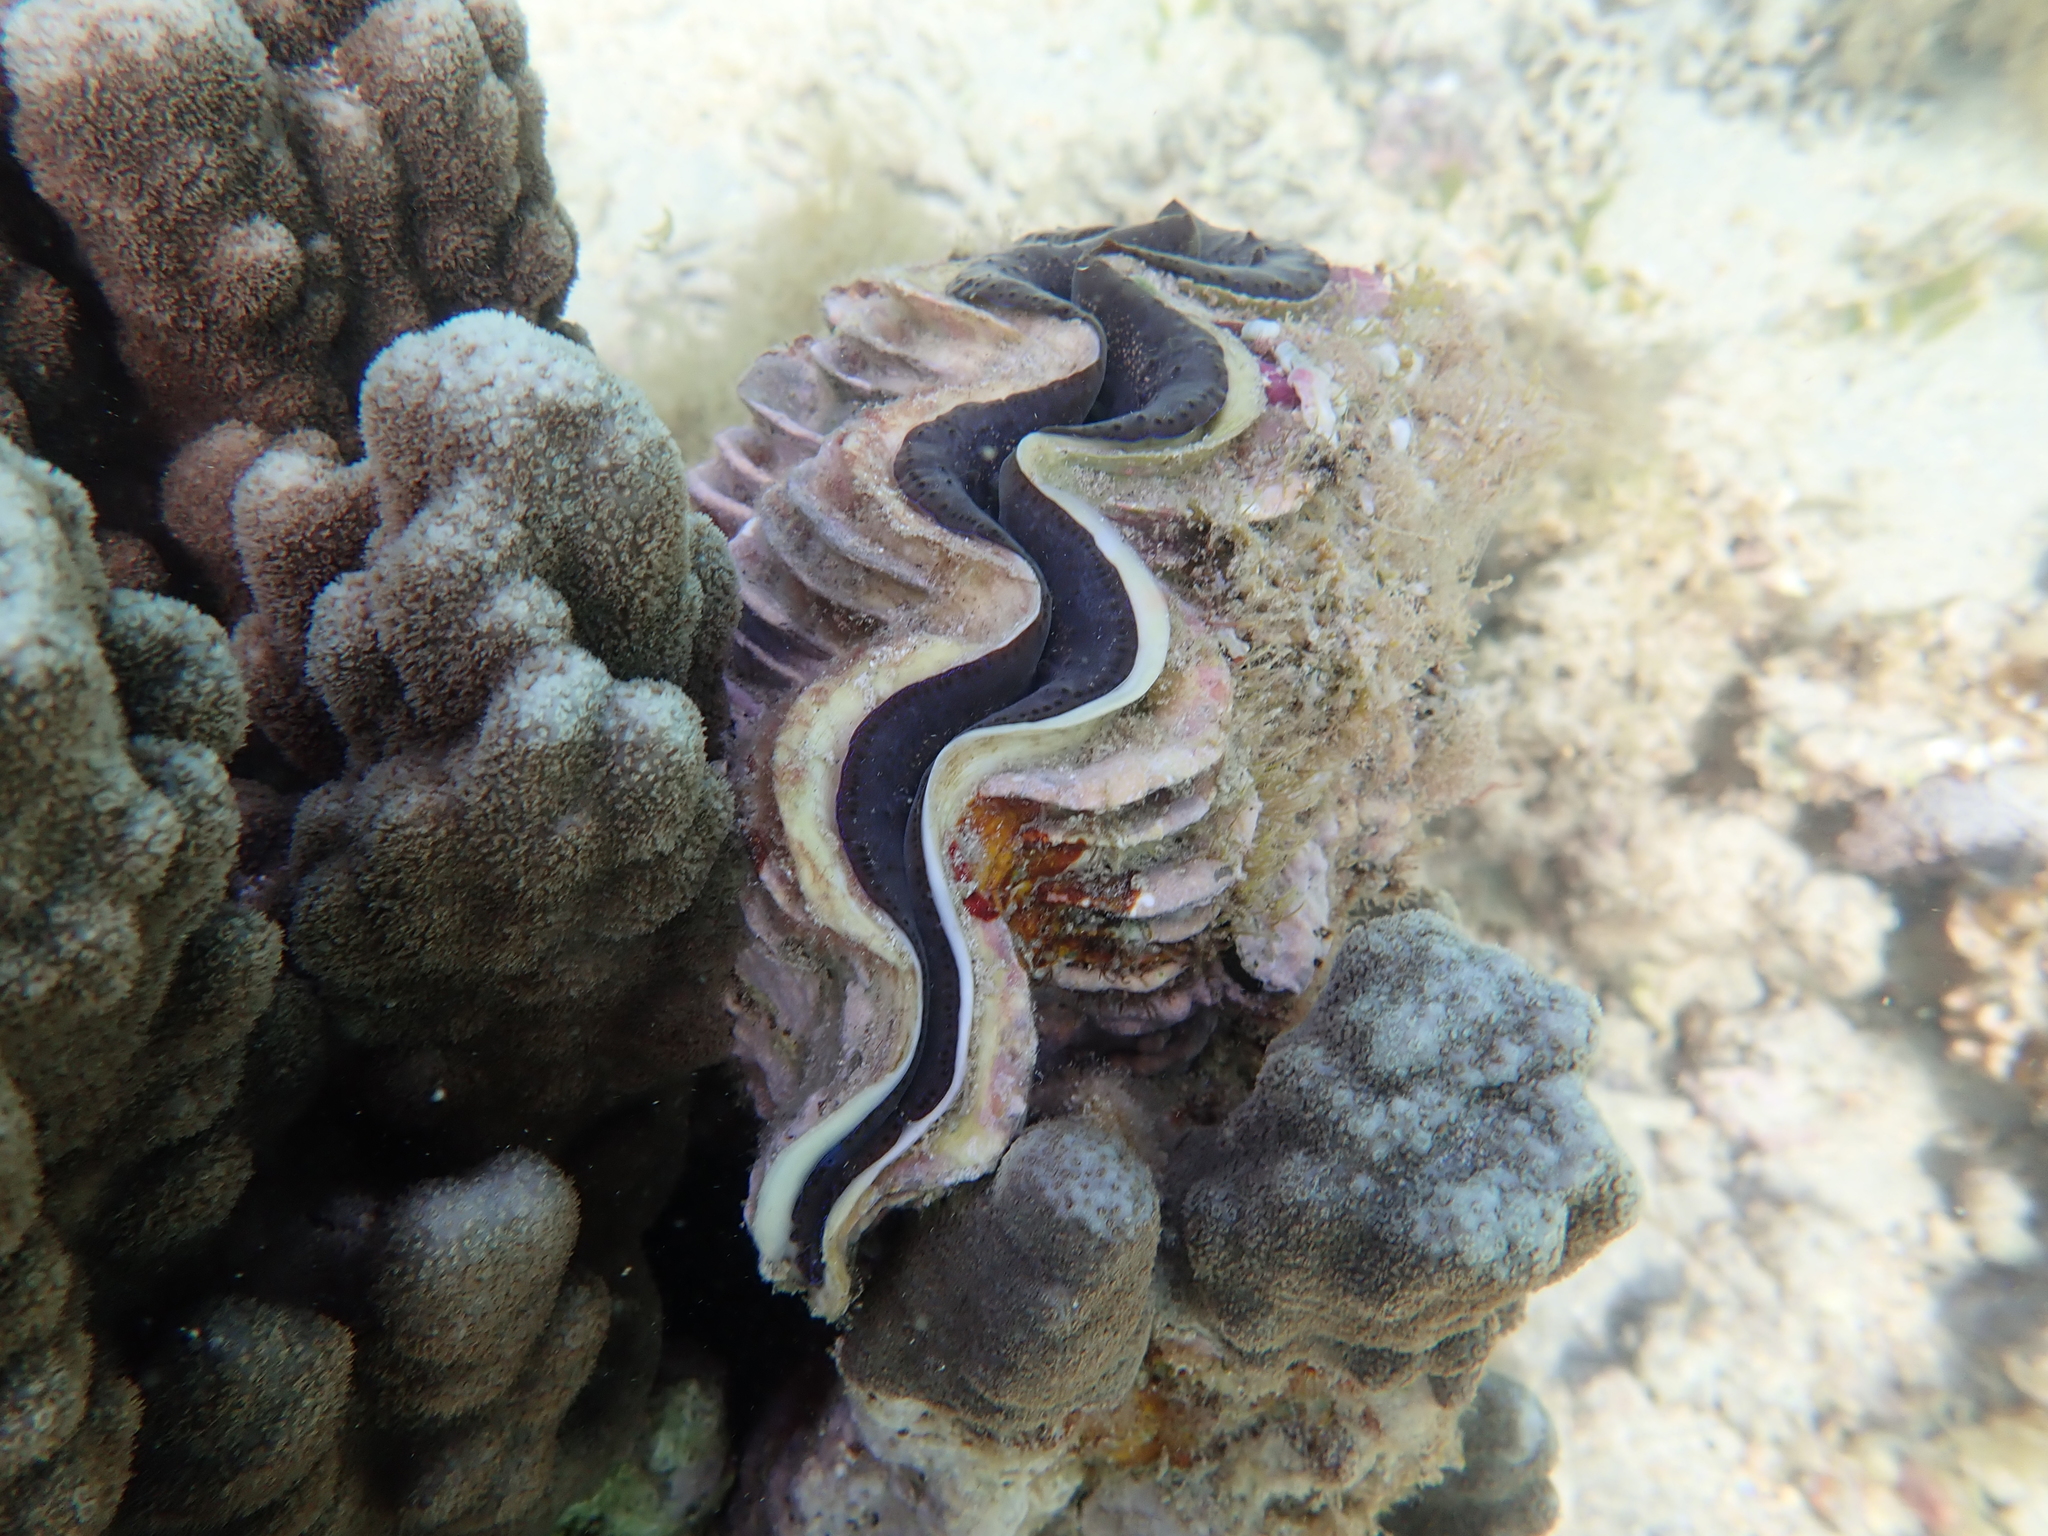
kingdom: Animalia
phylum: Mollusca
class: Bivalvia
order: Cardiida
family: Cardiidae
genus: Tridacna
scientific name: Tridacna maxima
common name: Small giant clam
